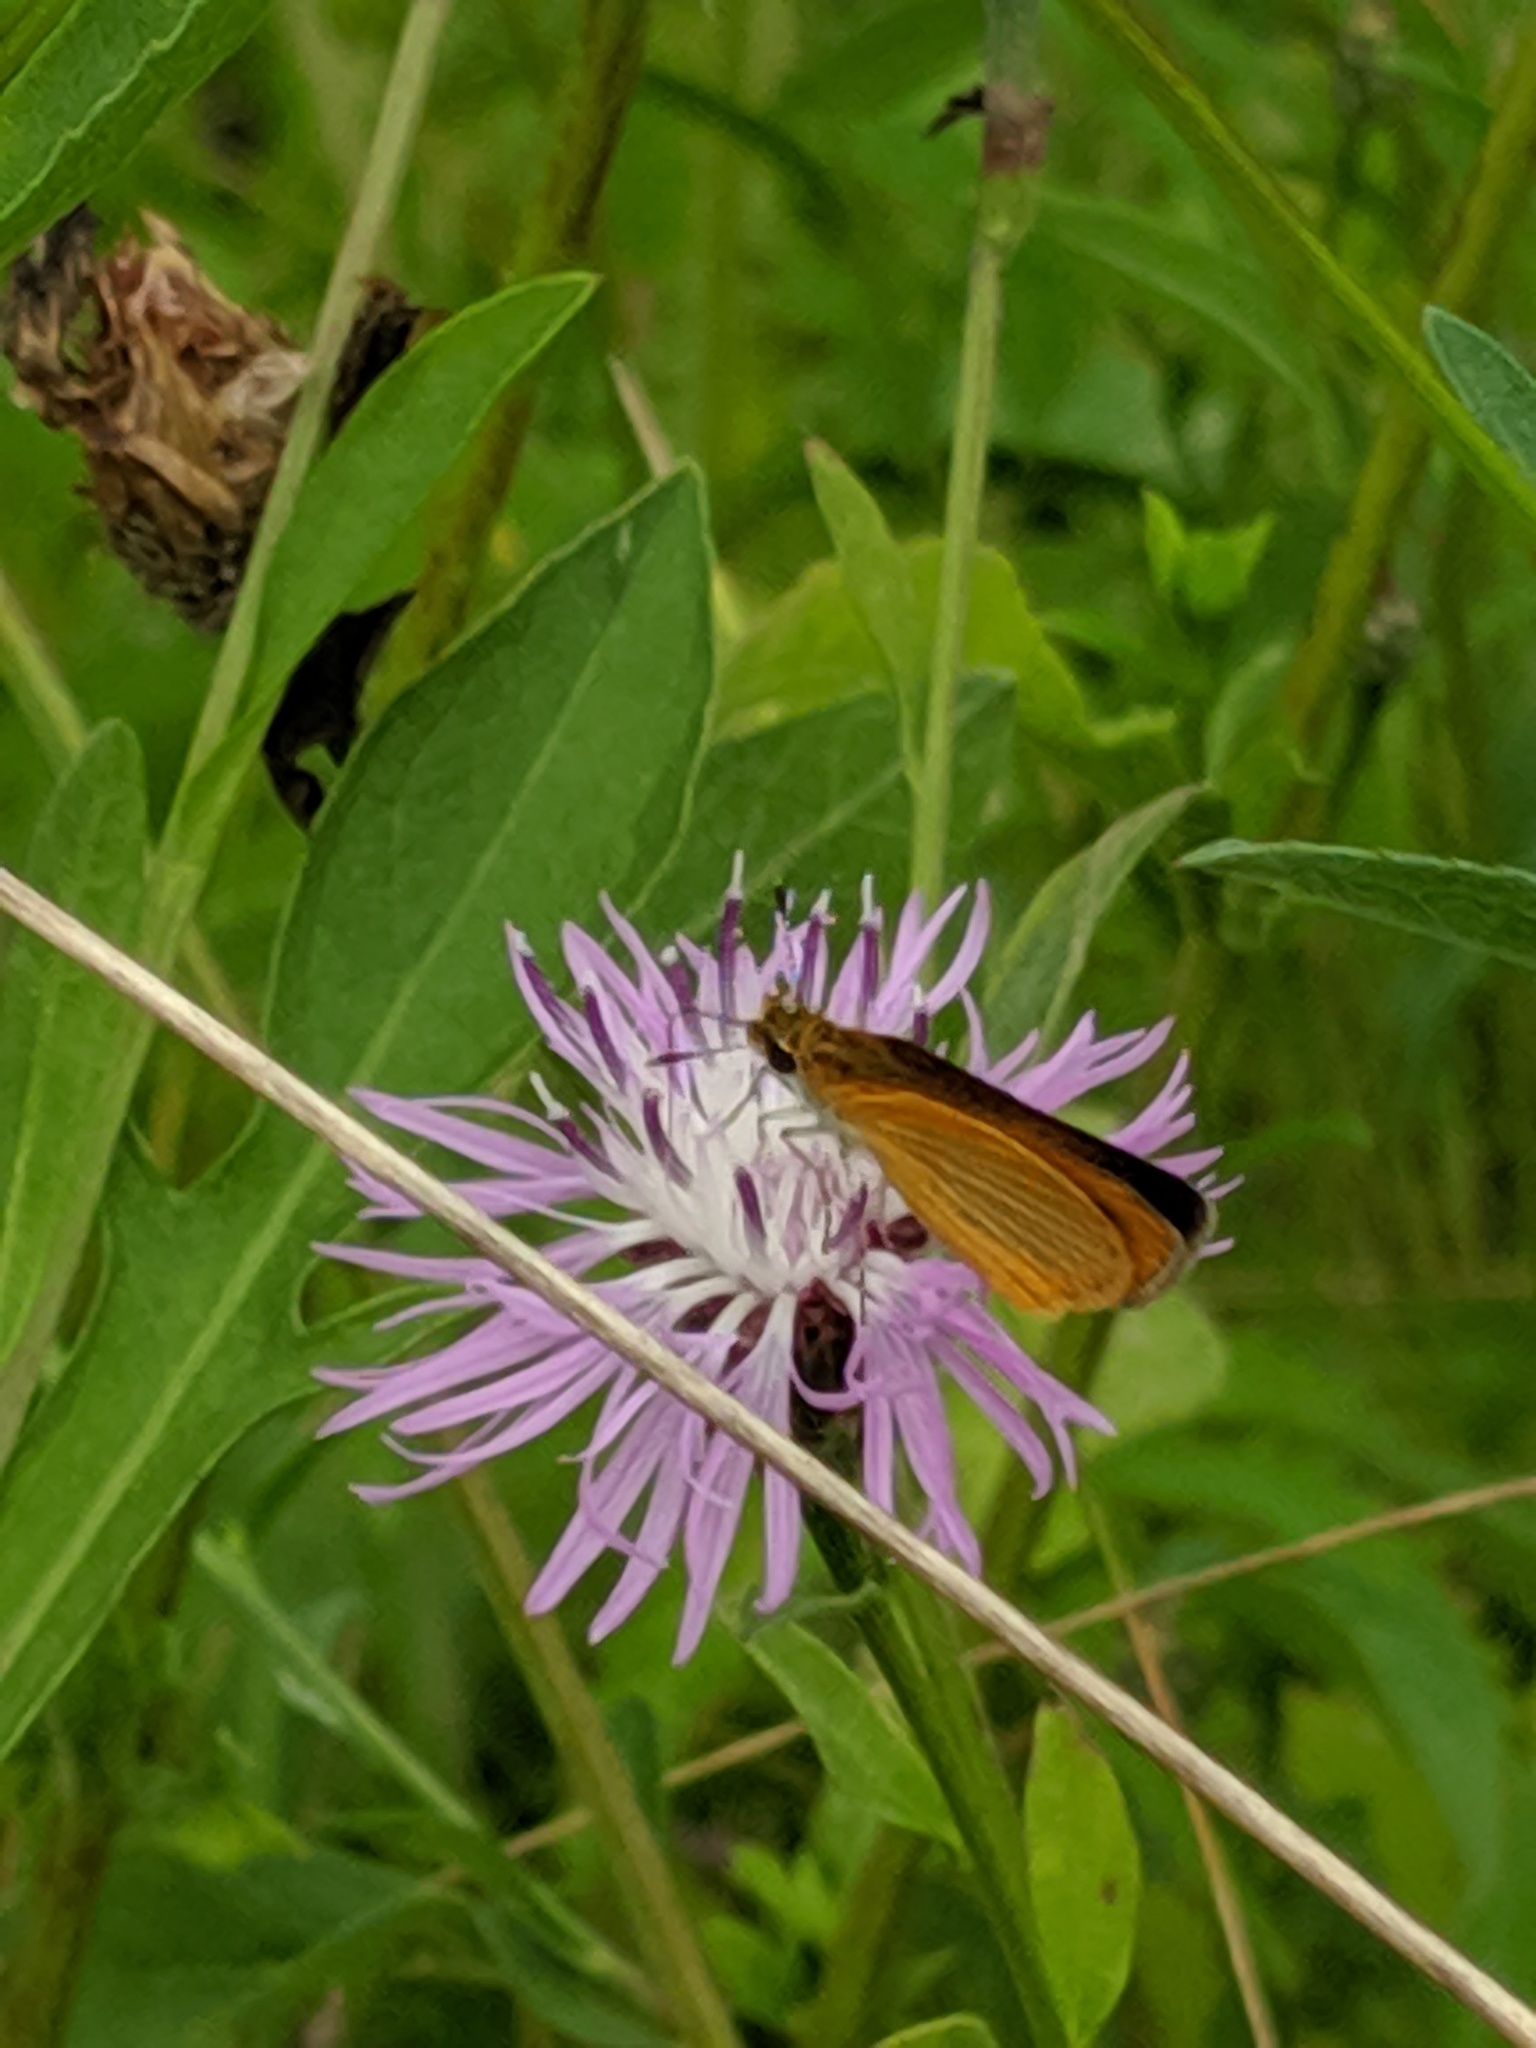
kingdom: Animalia
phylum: Arthropoda
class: Insecta
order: Lepidoptera
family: Hesperiidae
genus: Ancyloxypha
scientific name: Ancyloxypha numitor
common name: Least skipper
